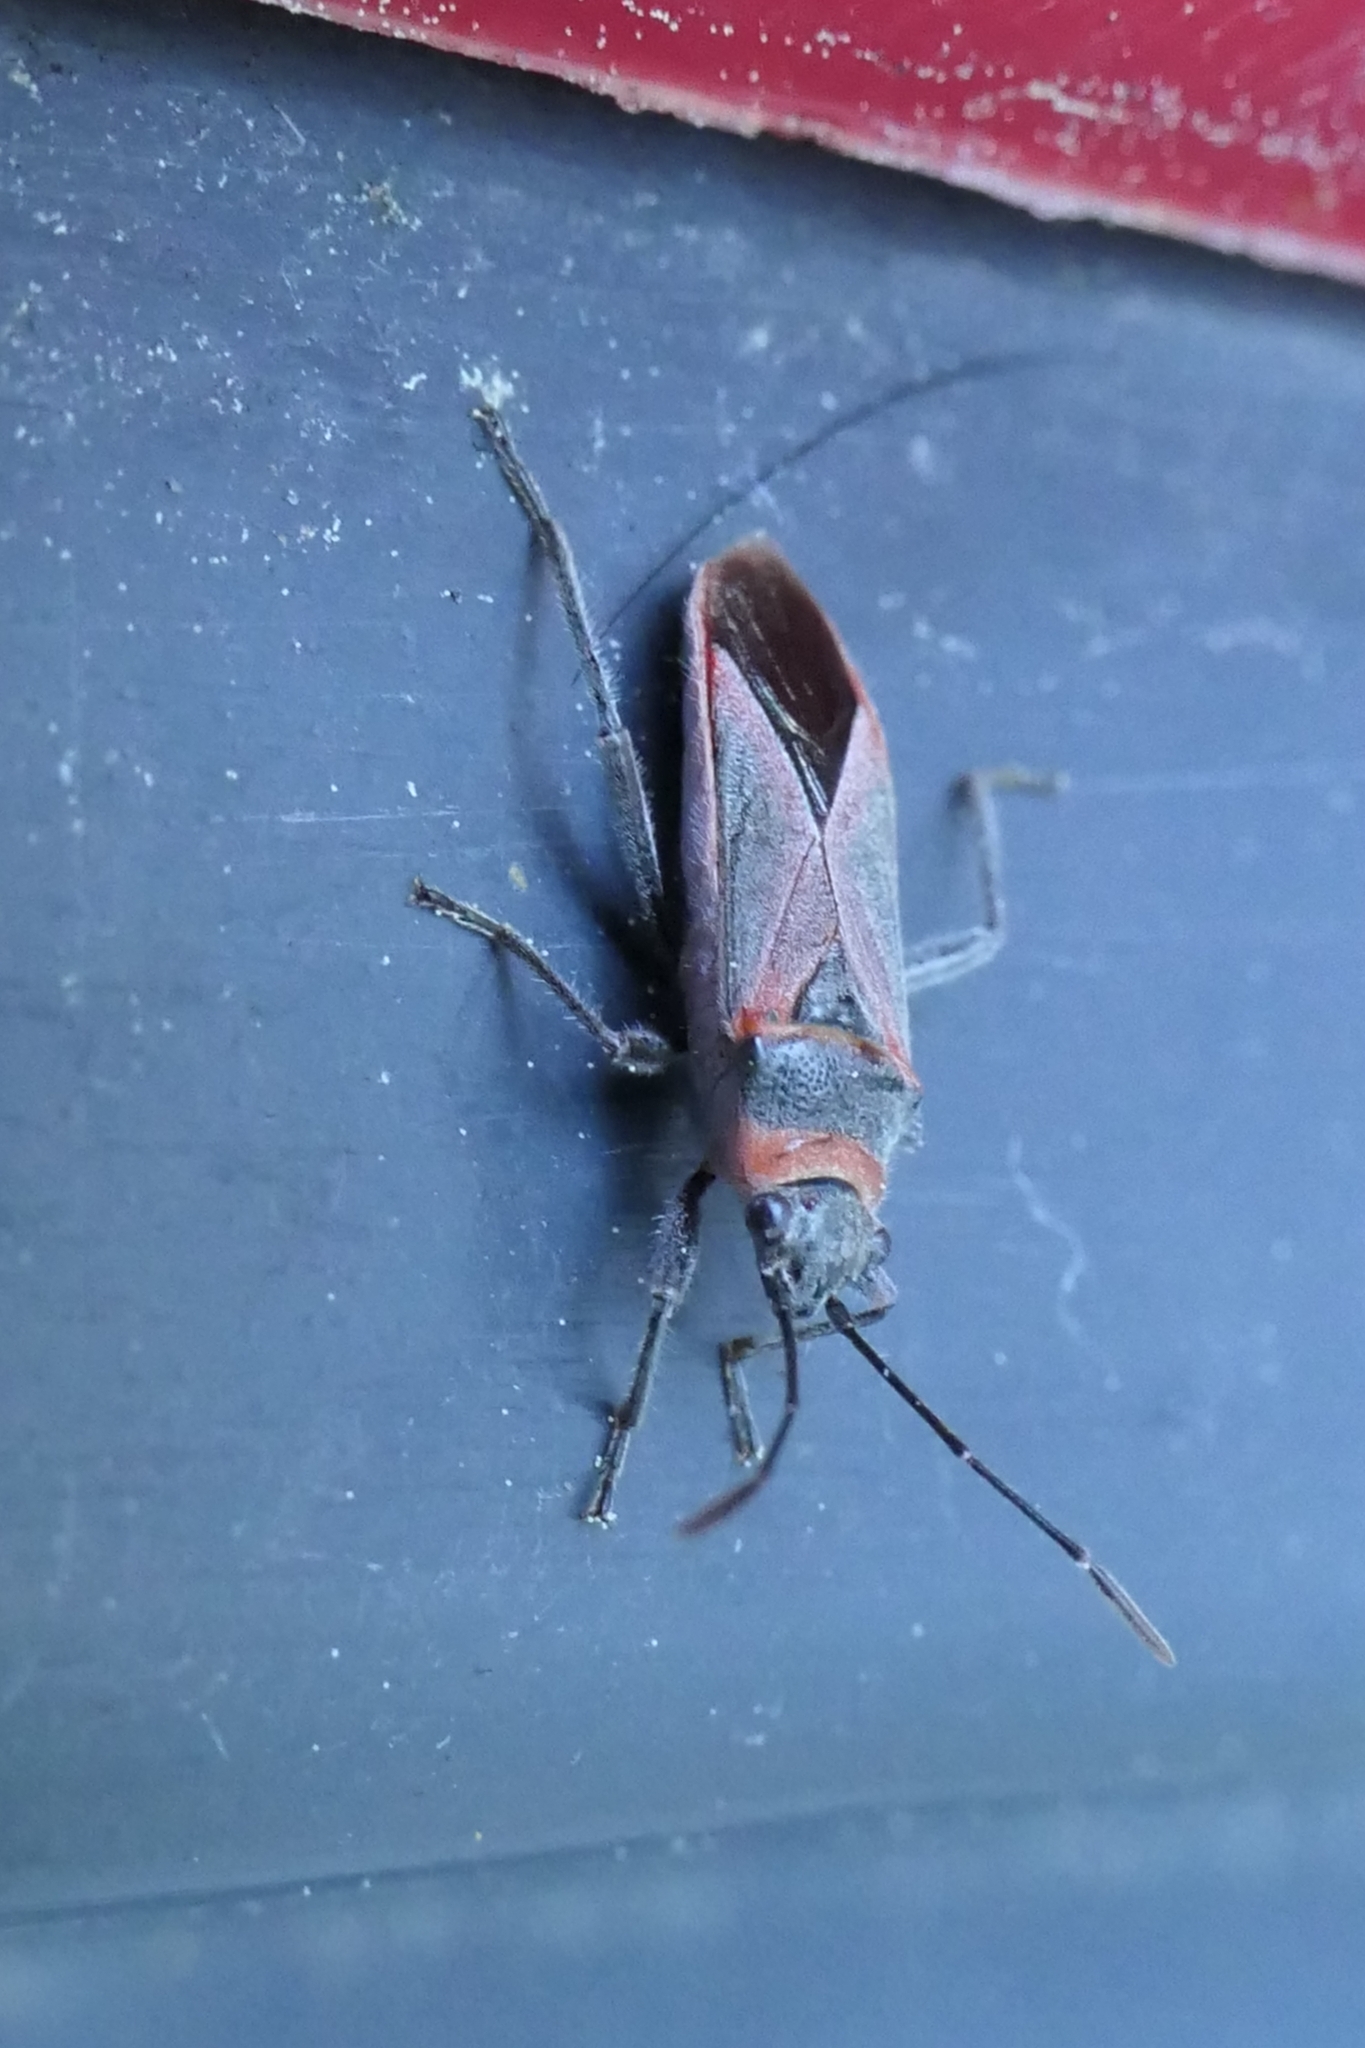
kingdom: Animalia
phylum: Arthropoda
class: Insecta
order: Hemiptera
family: Lygaeidae
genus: Arocatus
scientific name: Arocatus rusticus
